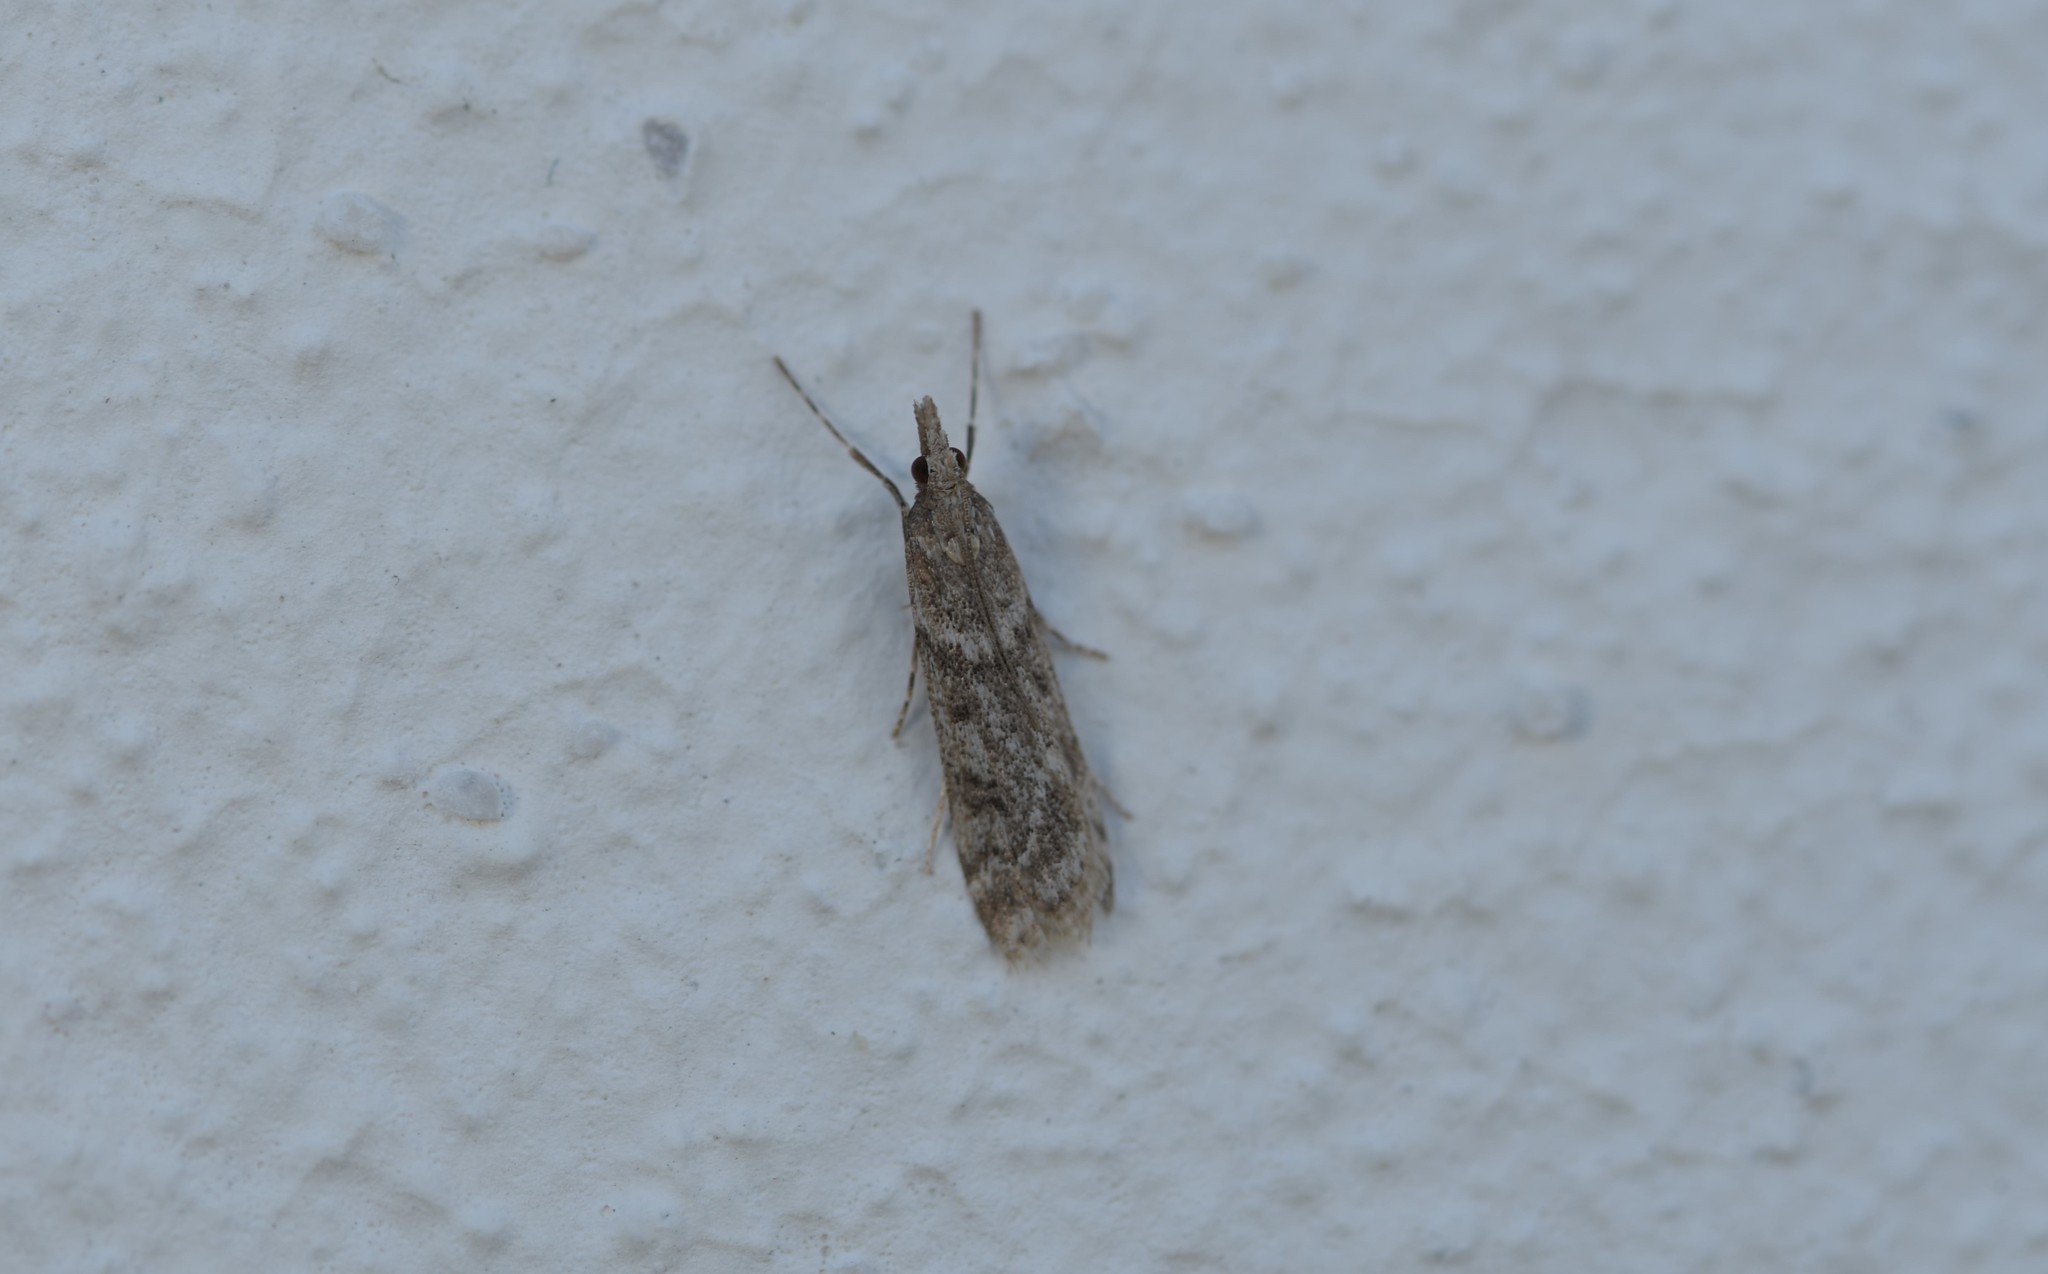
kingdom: Animalia
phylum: Arthropoda
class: Insecta
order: Lepidoptera
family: Crambidae
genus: Eudonia
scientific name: Eudonia angustea
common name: Narrow-winged grey
